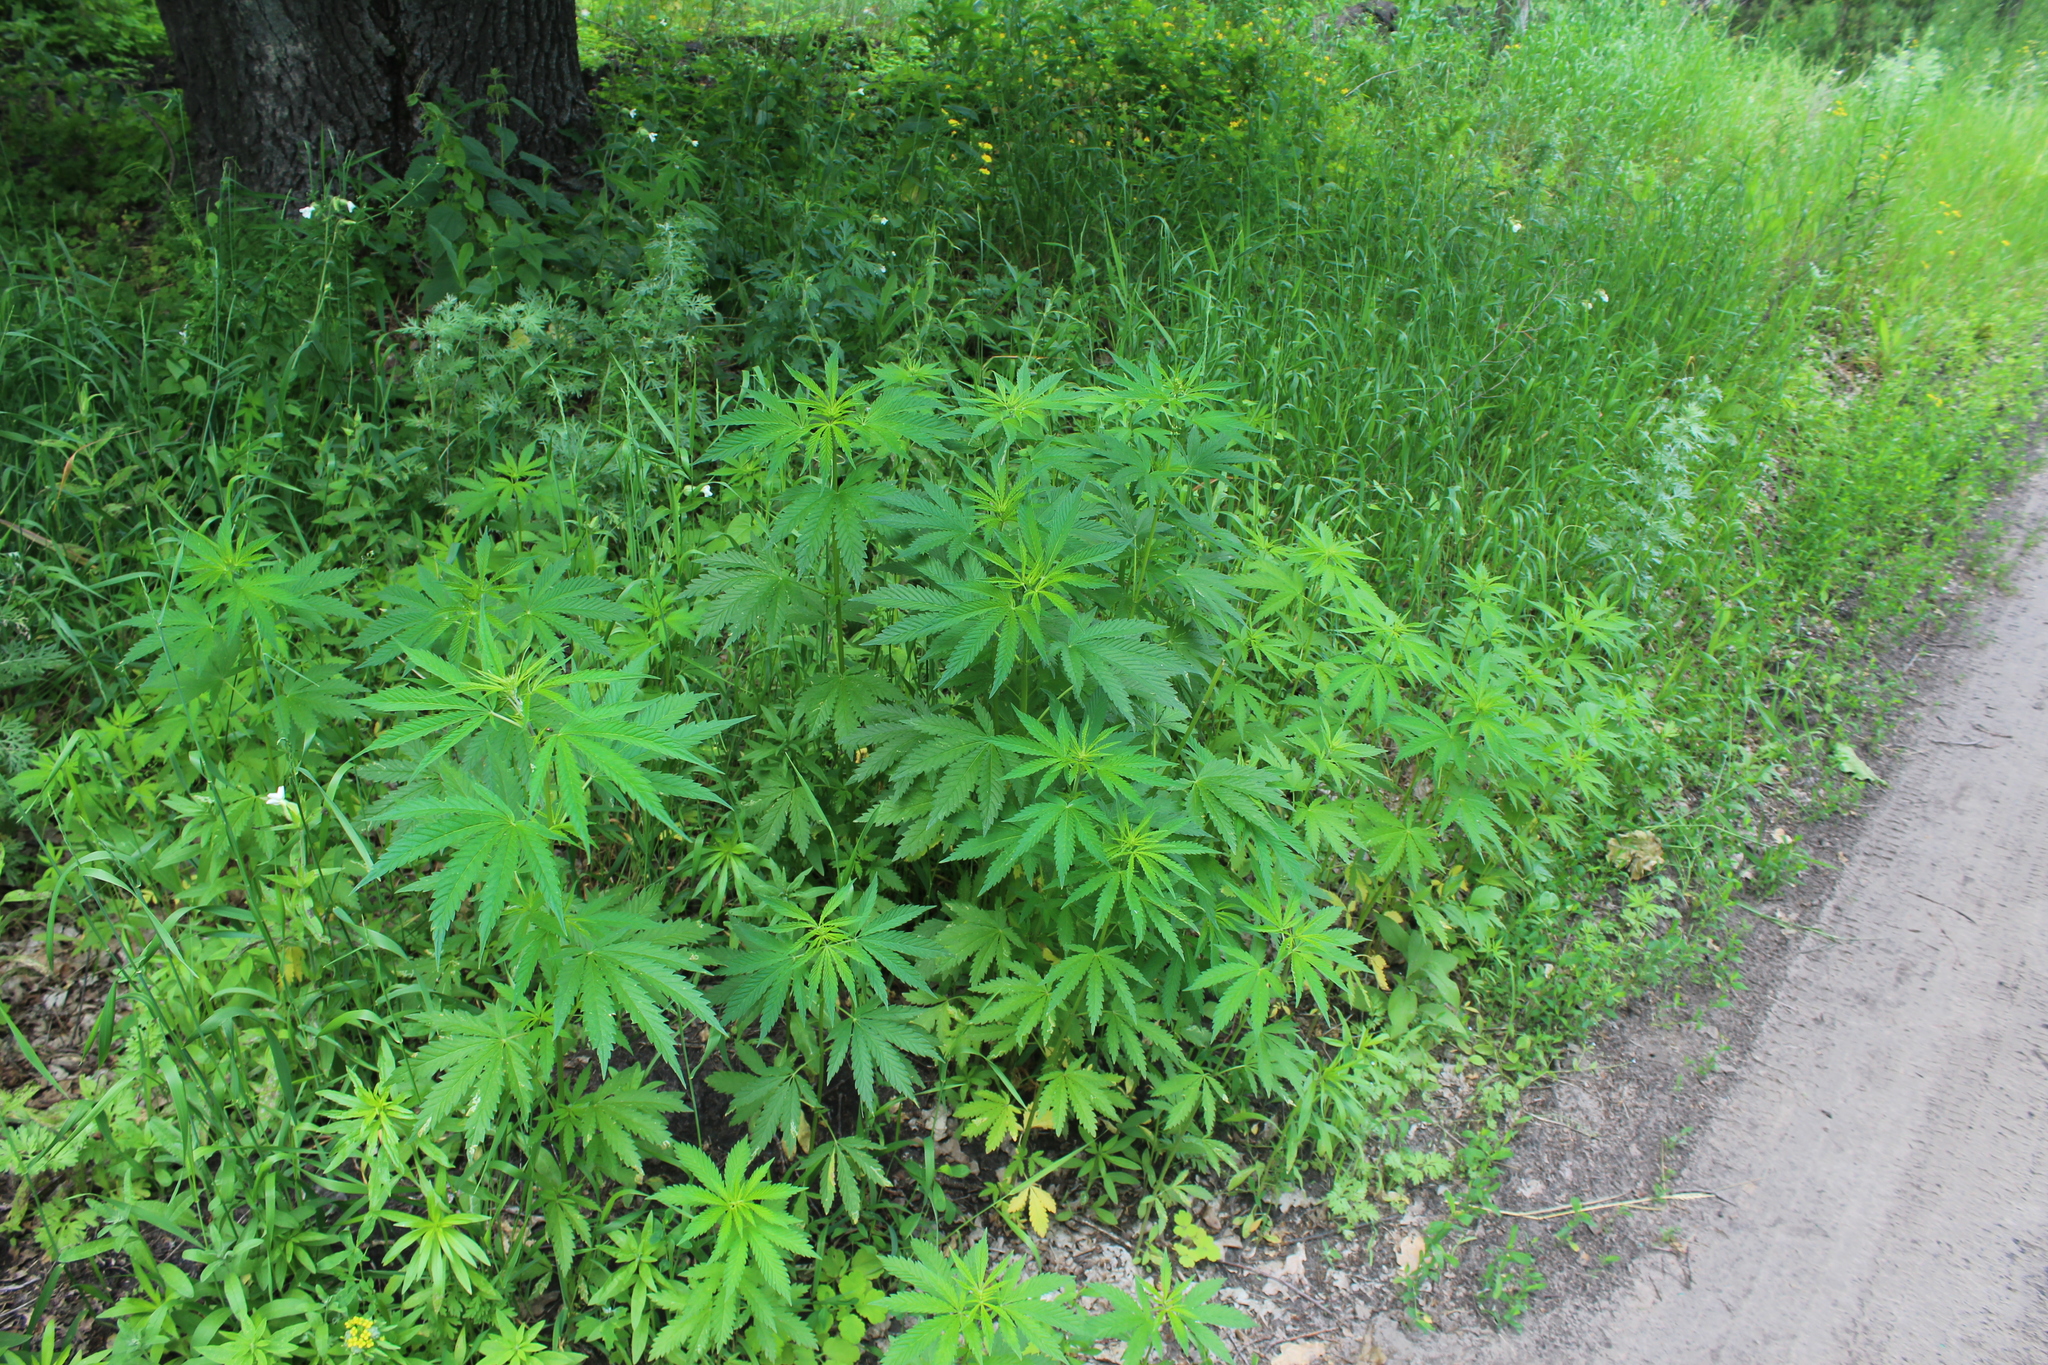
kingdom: Plantae
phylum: Tracheophyta
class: Magnoliopsida
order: Rosales
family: Cannabaceae
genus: Cannabis
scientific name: Cannabis sativa
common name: Hemp
